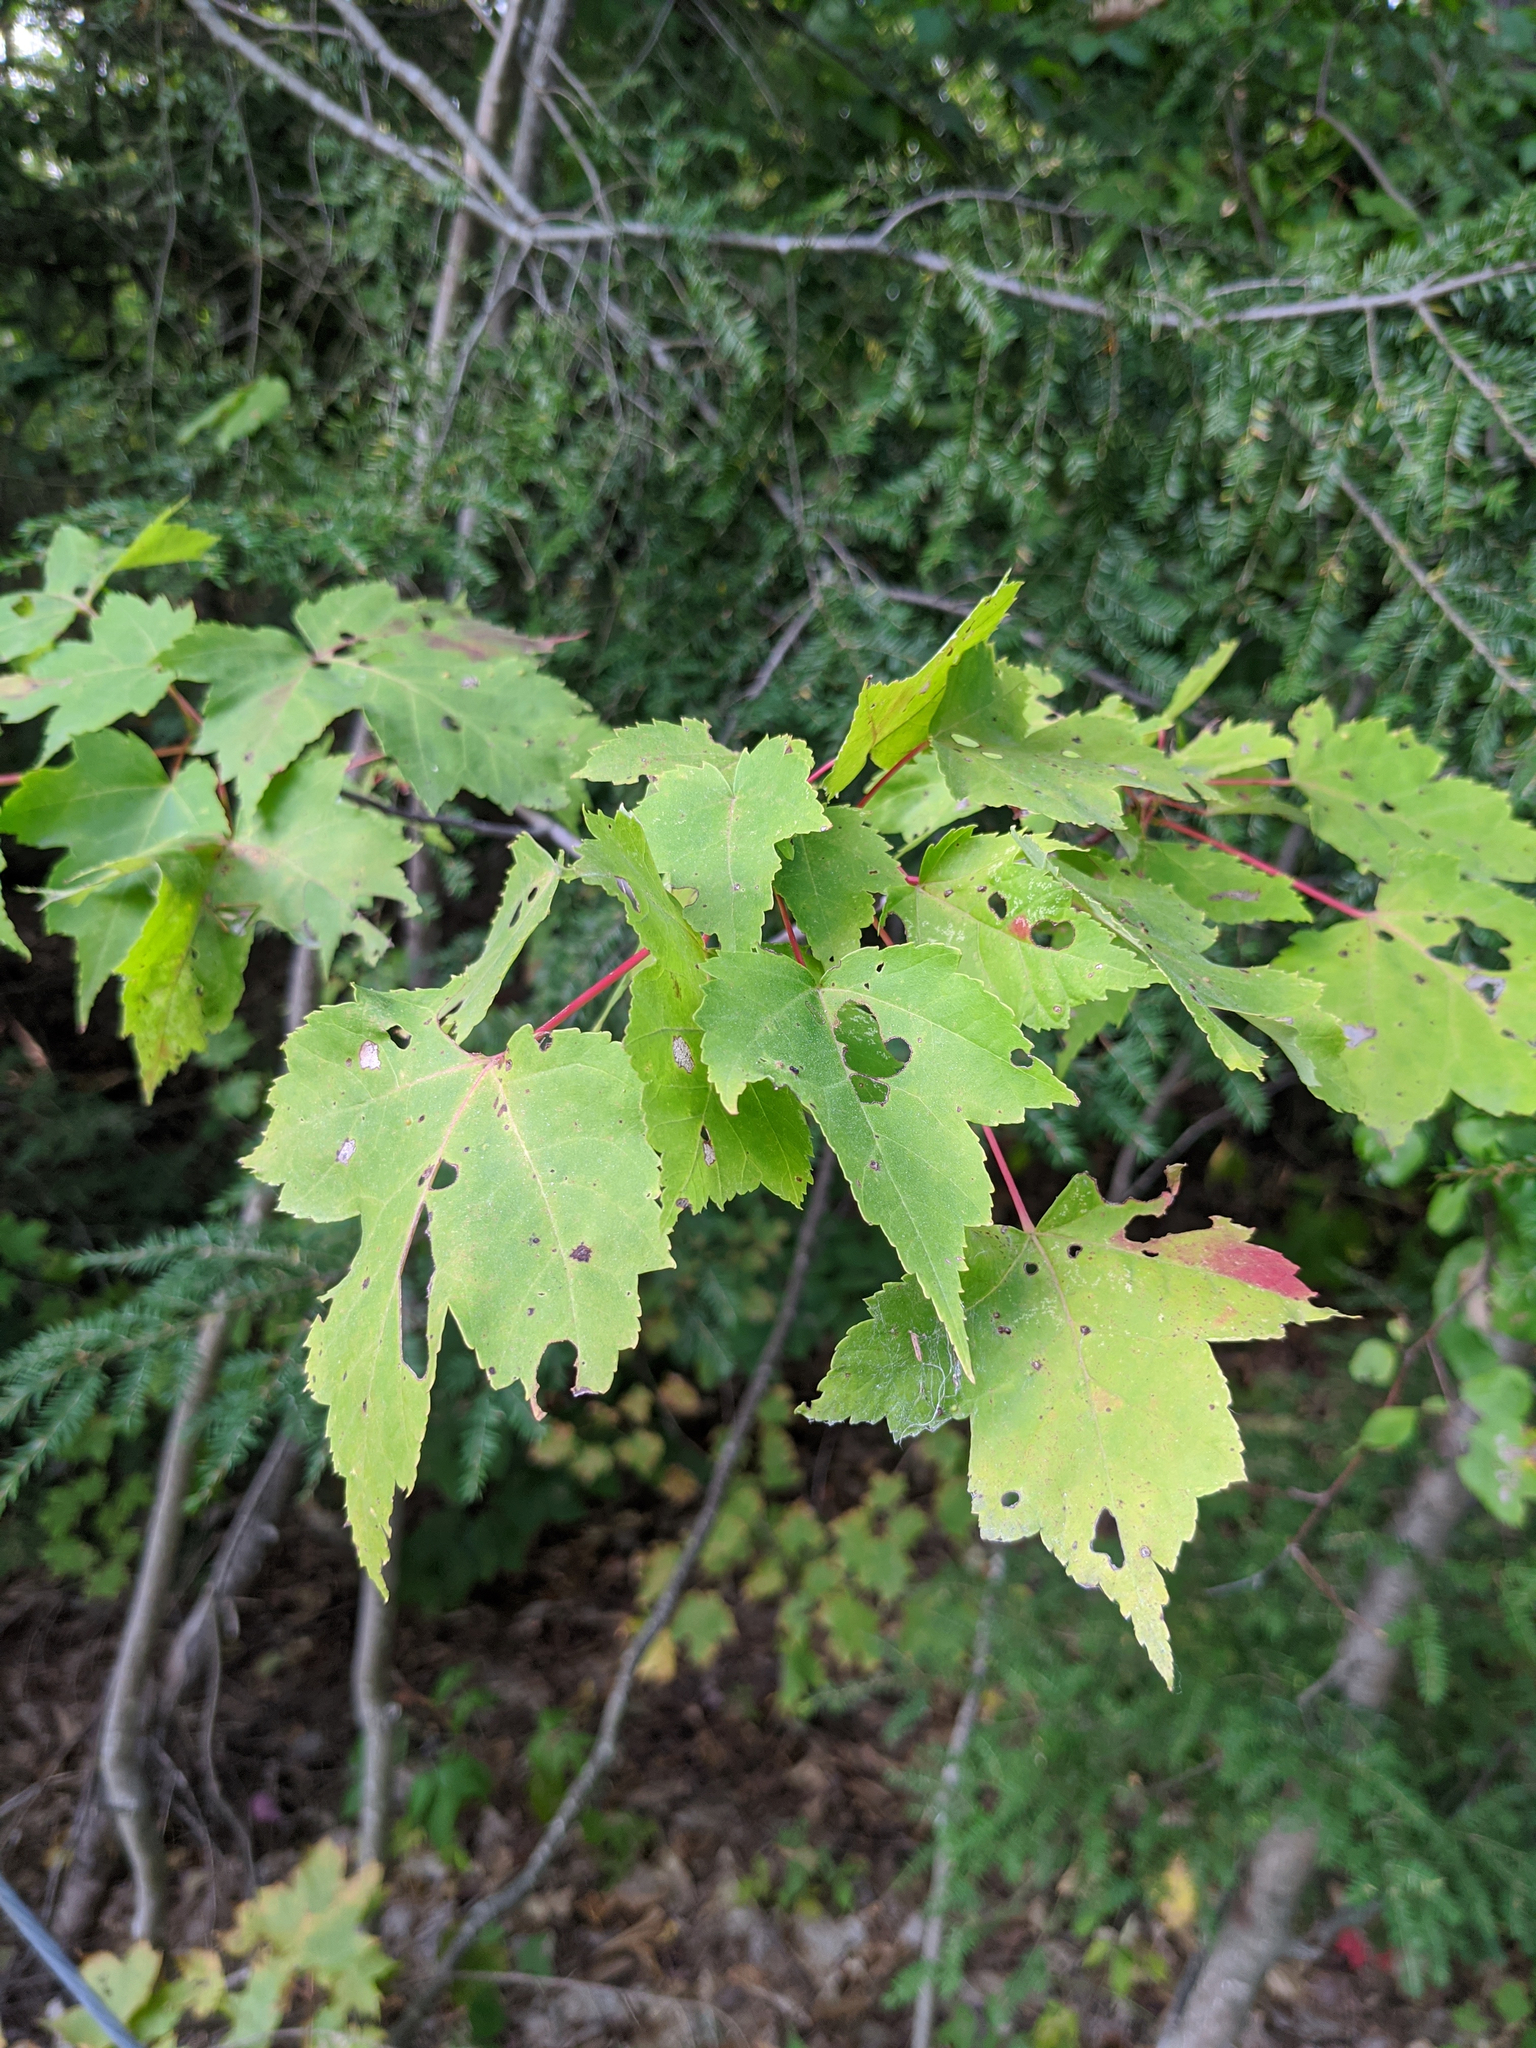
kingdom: Plantae
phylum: Tracheophyta
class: Magnoliopsida
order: Sapindales
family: Sapindaceae
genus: Acer
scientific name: Acer rubrum
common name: Red maple
